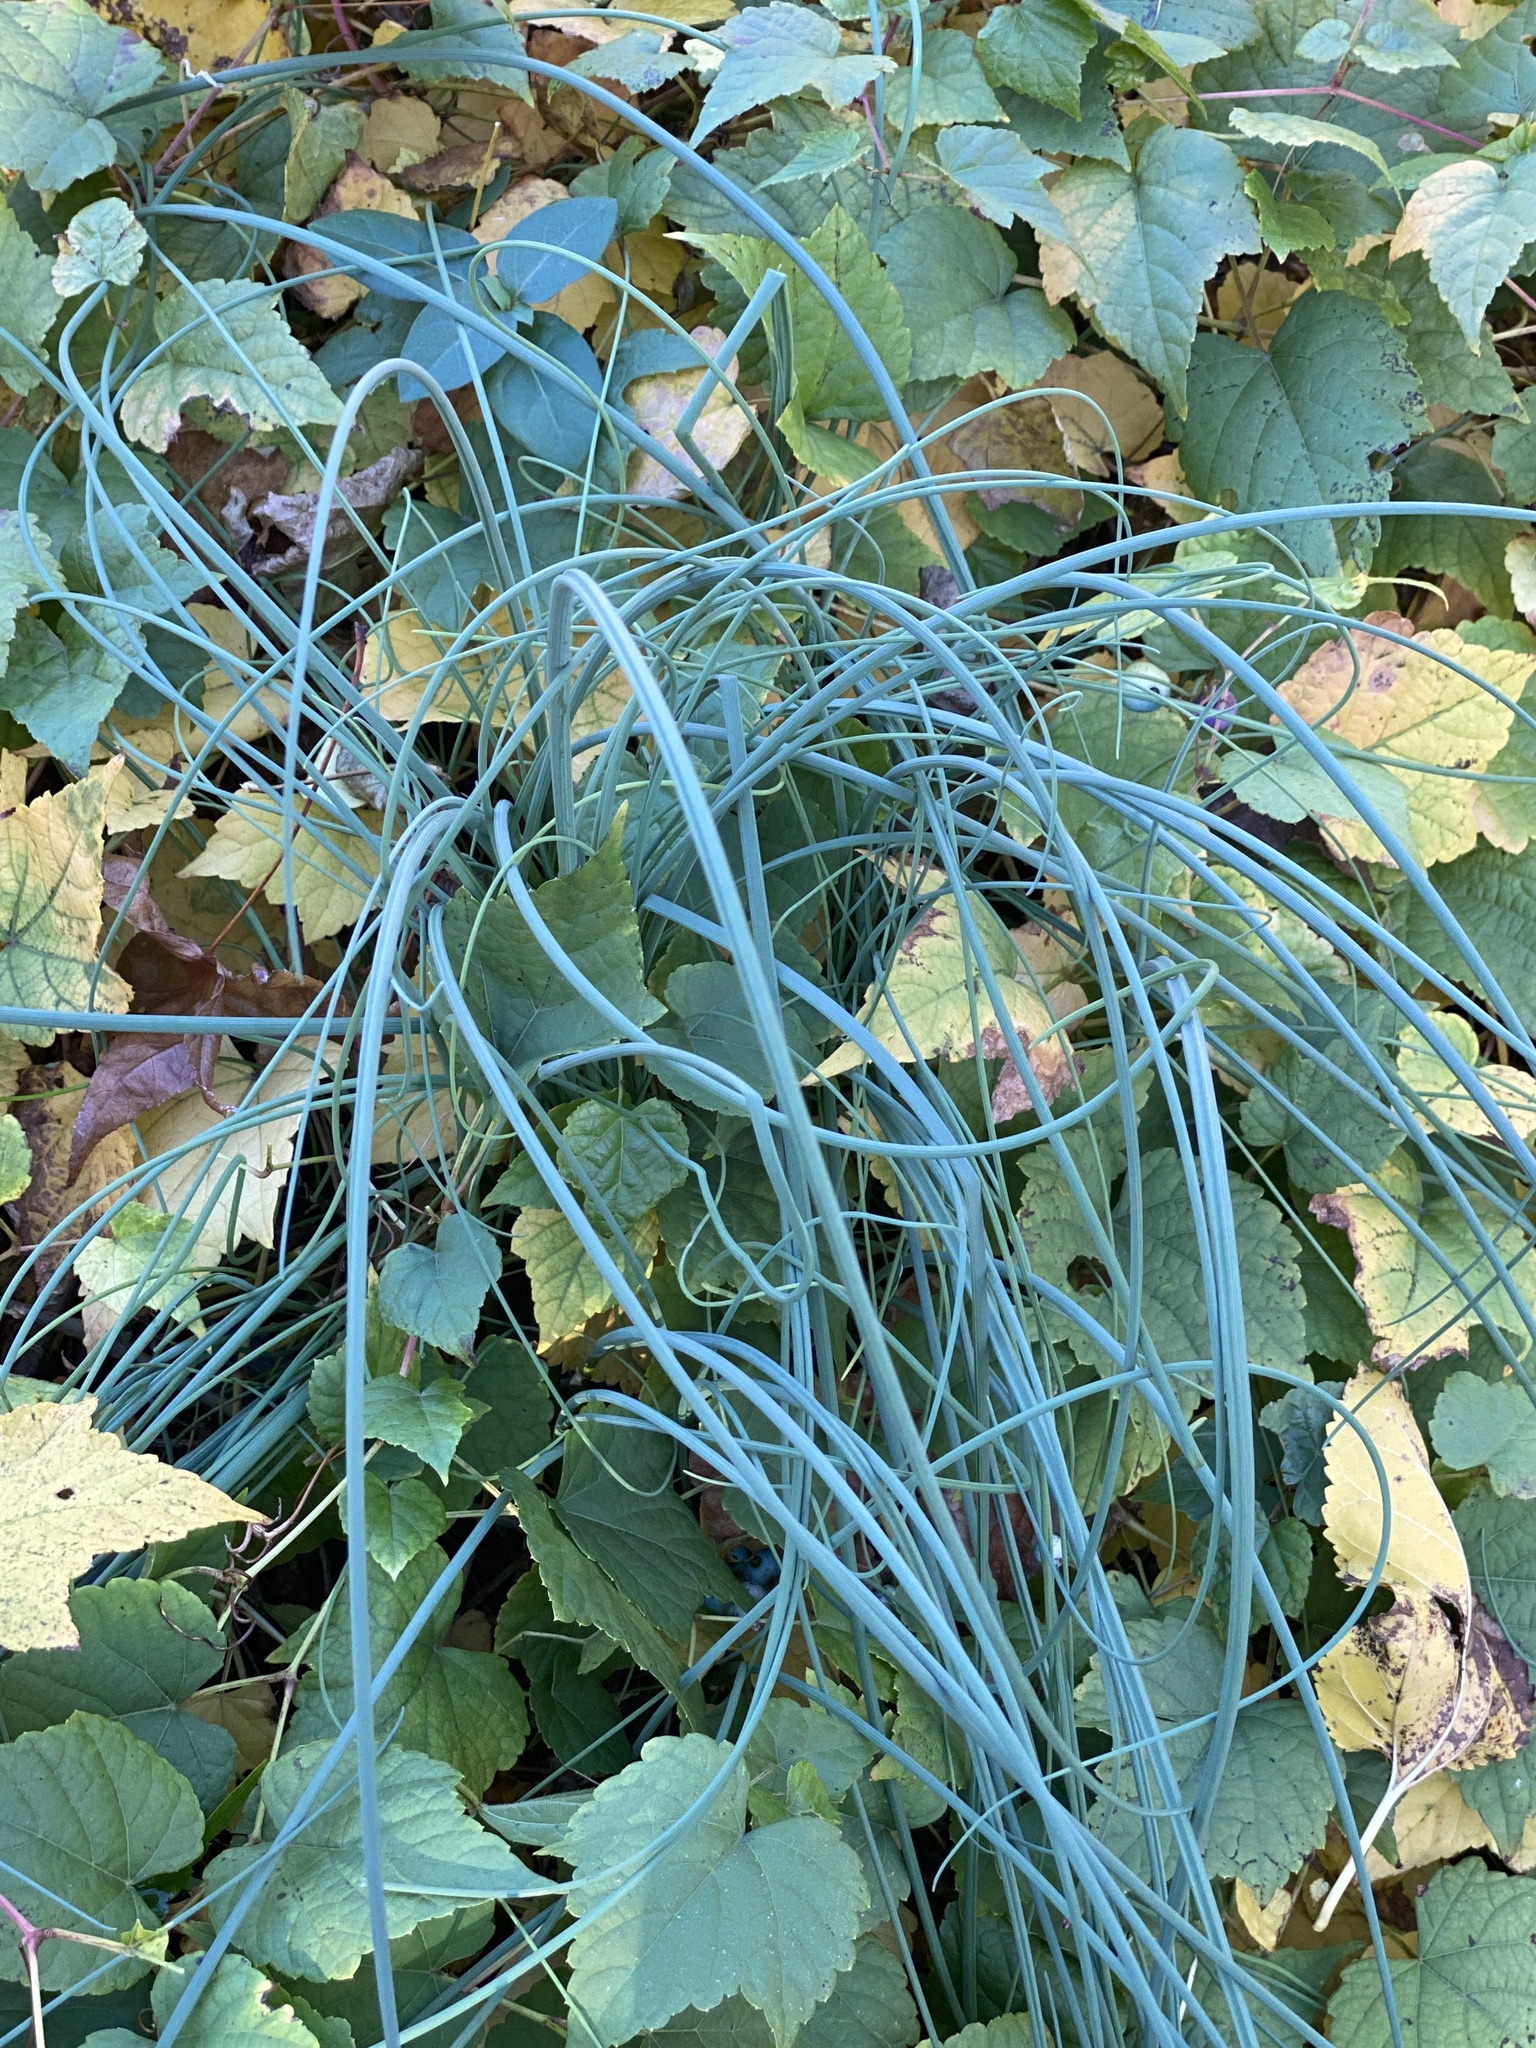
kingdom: Plantae
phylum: Tracheophyta
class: Liliopsida
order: Asparagales
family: Amaryllidaceae
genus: Allium
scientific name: Allium vineale
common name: Crow garlic
